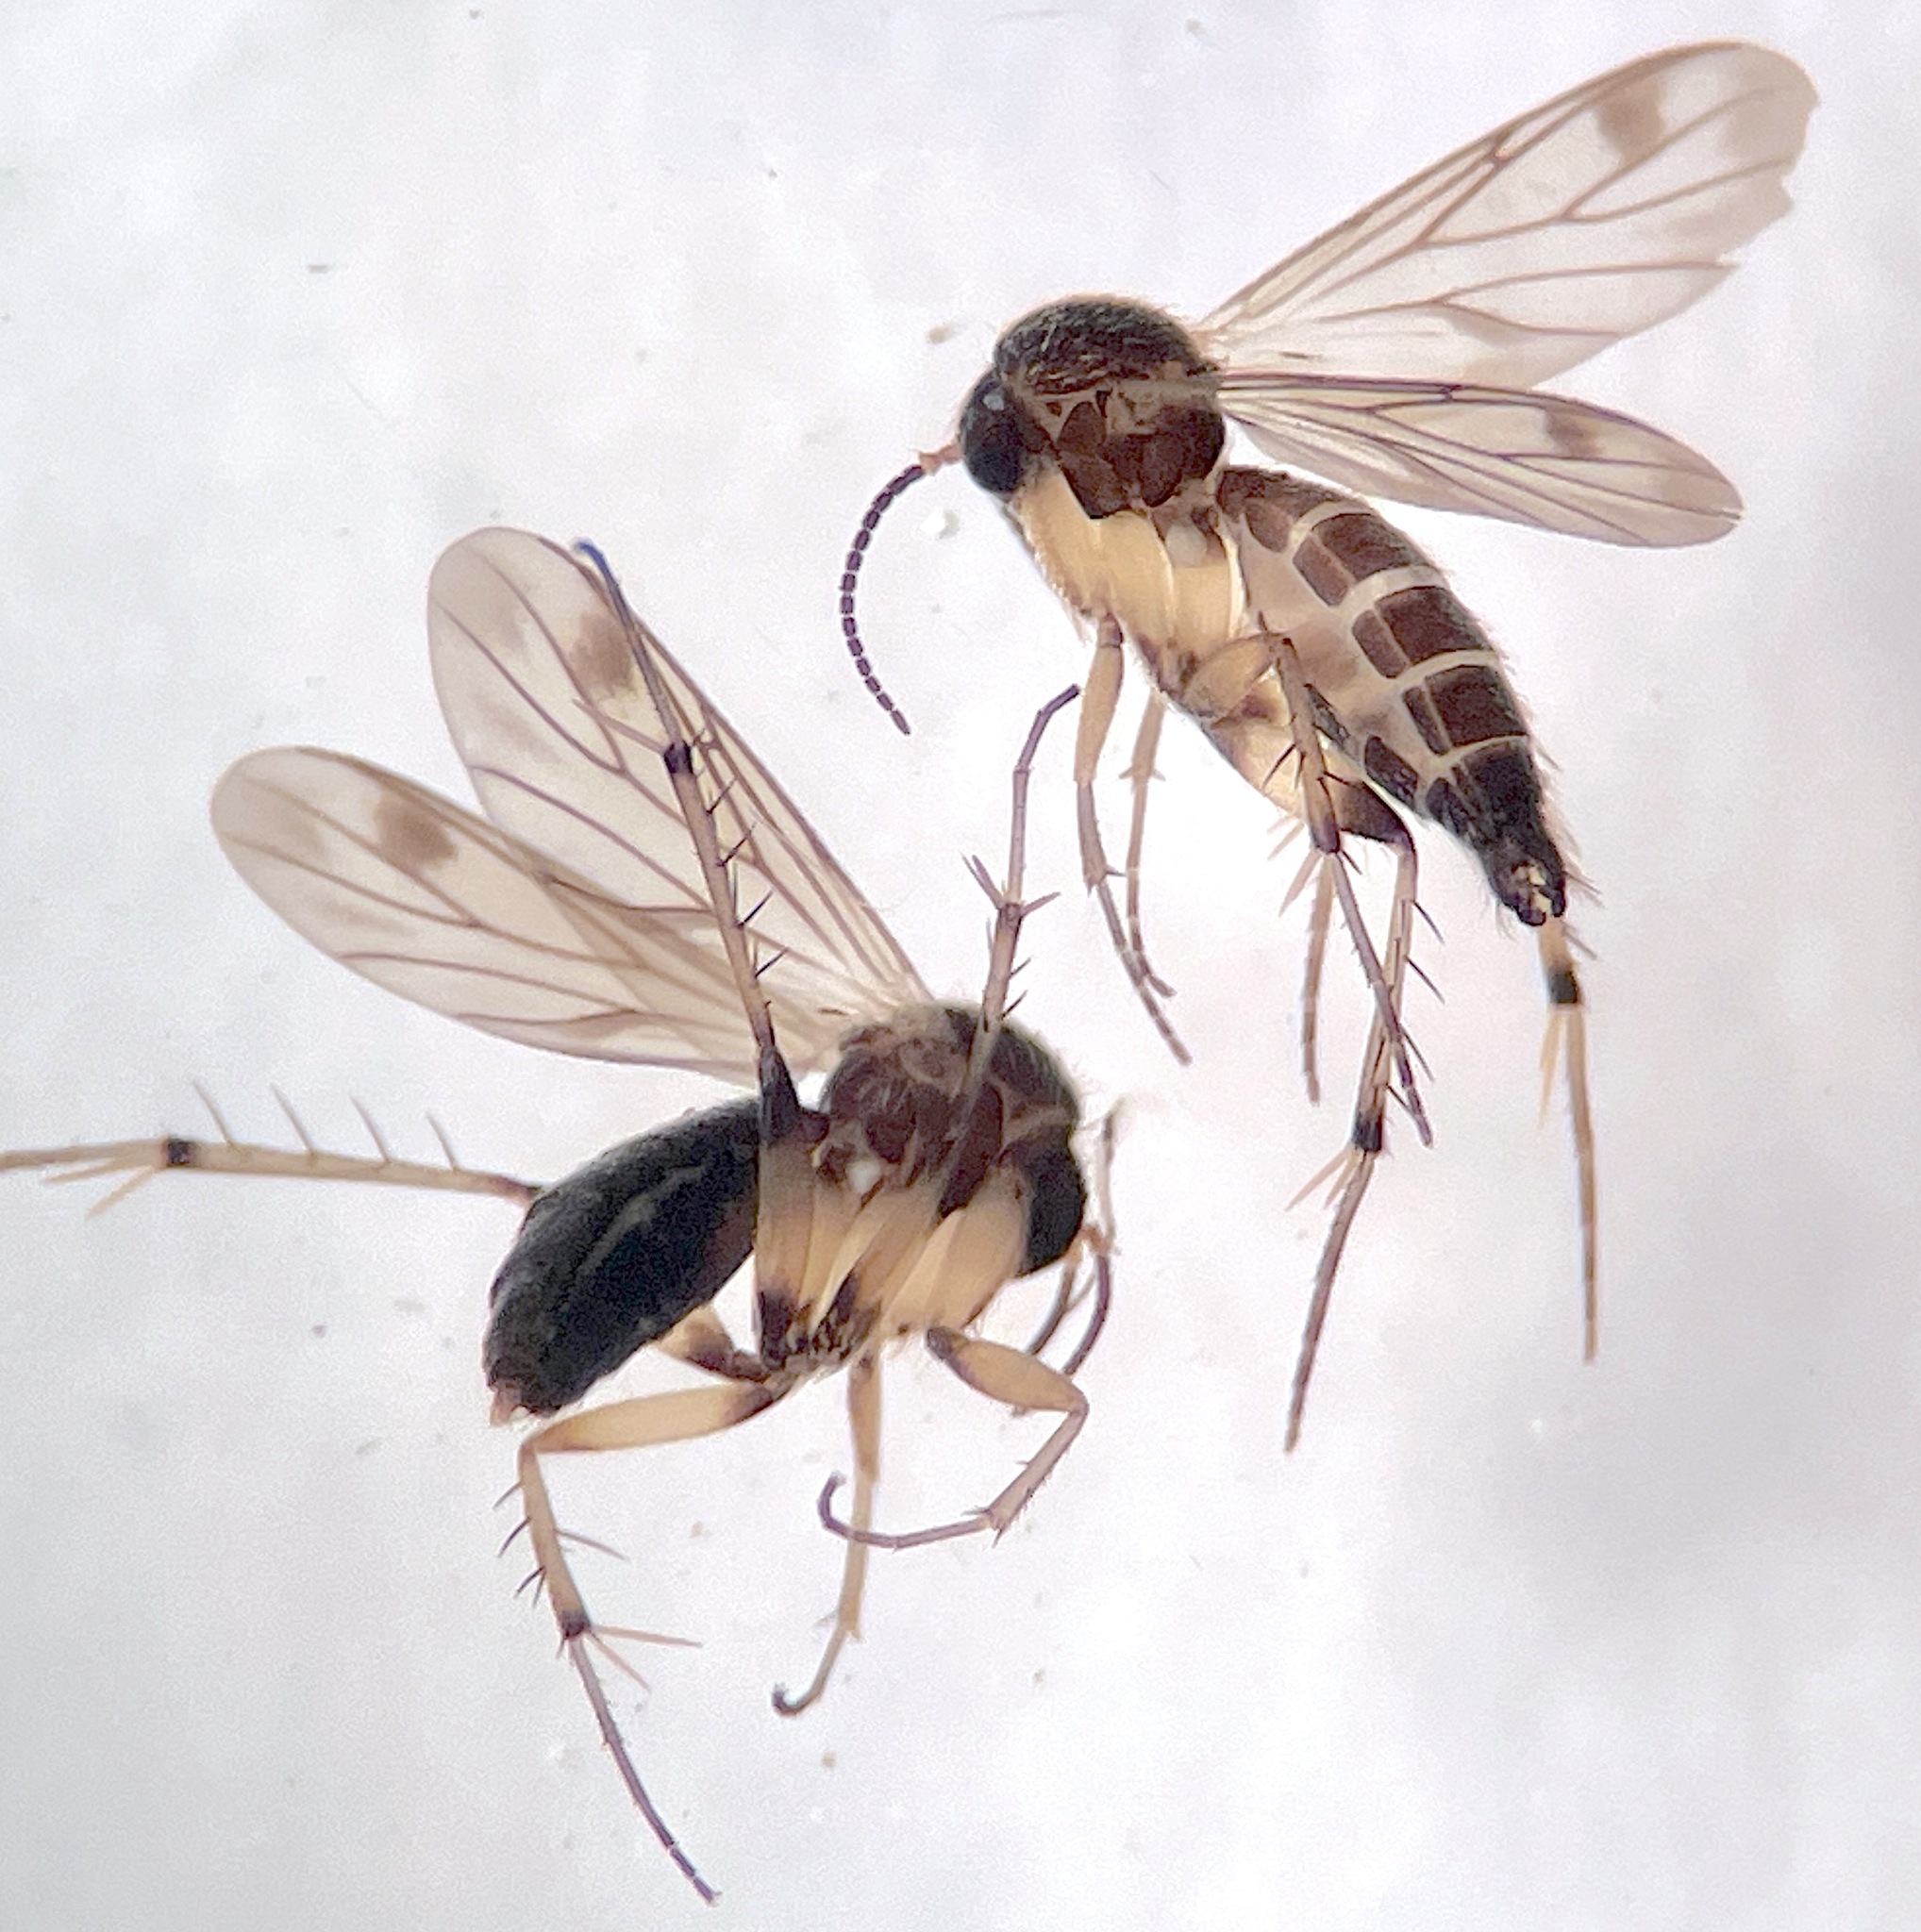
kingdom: Animalia
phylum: Arthropoda
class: Insecta
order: Diptera
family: Mycetophilidae
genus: Anomalomyia
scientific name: Anomalomyia minor
